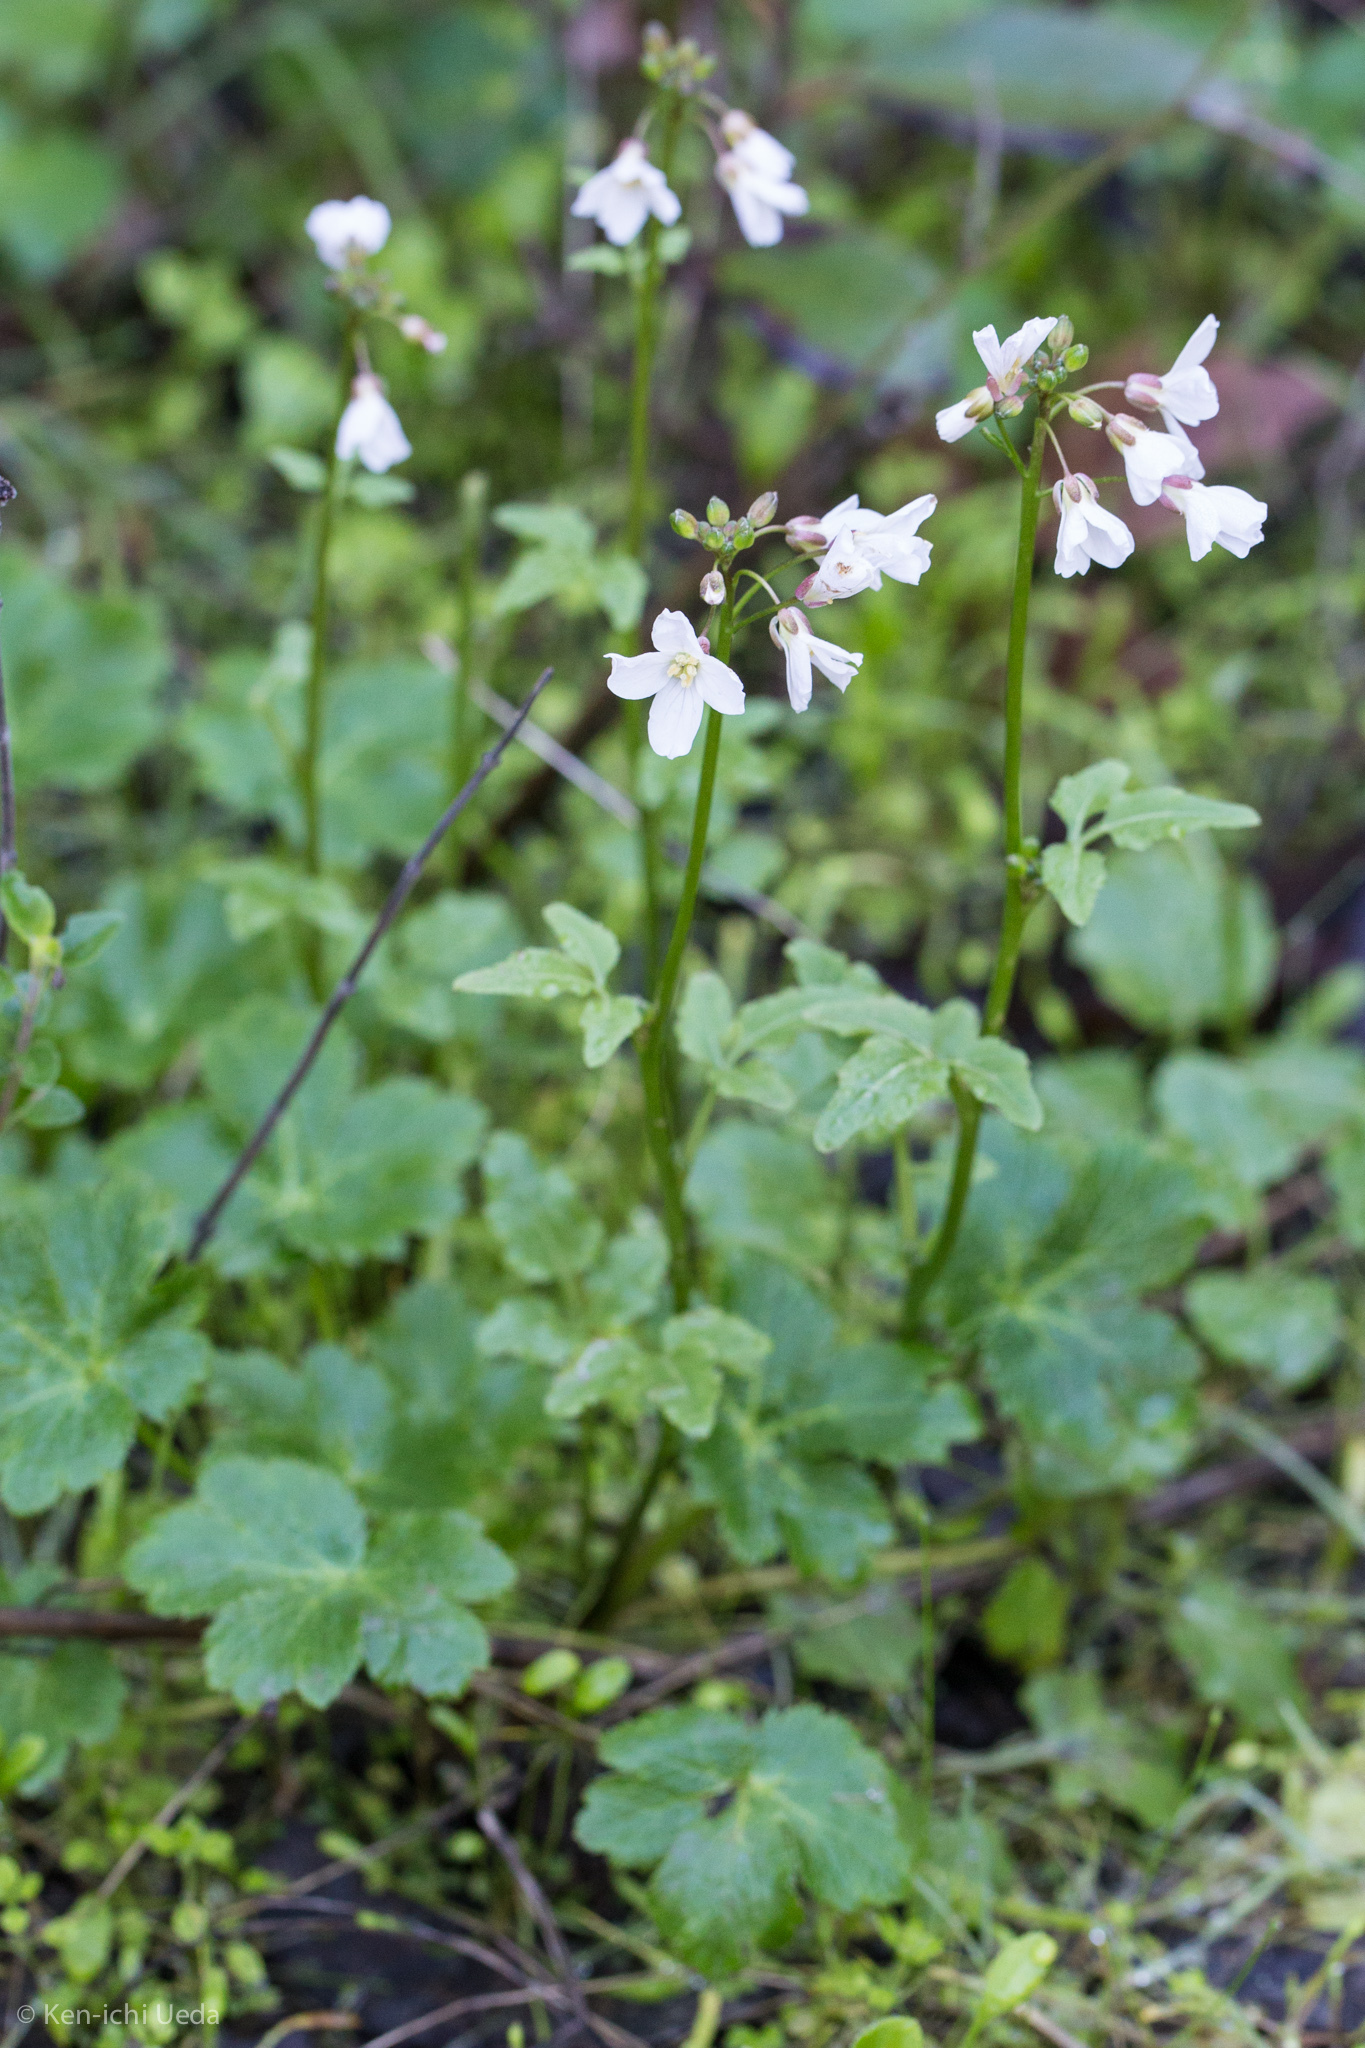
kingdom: Plantae
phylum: Tracheophyta
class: Magnoliopsida
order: Brassicales
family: Brassicaceae
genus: Cardamine
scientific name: Cardamine californica
